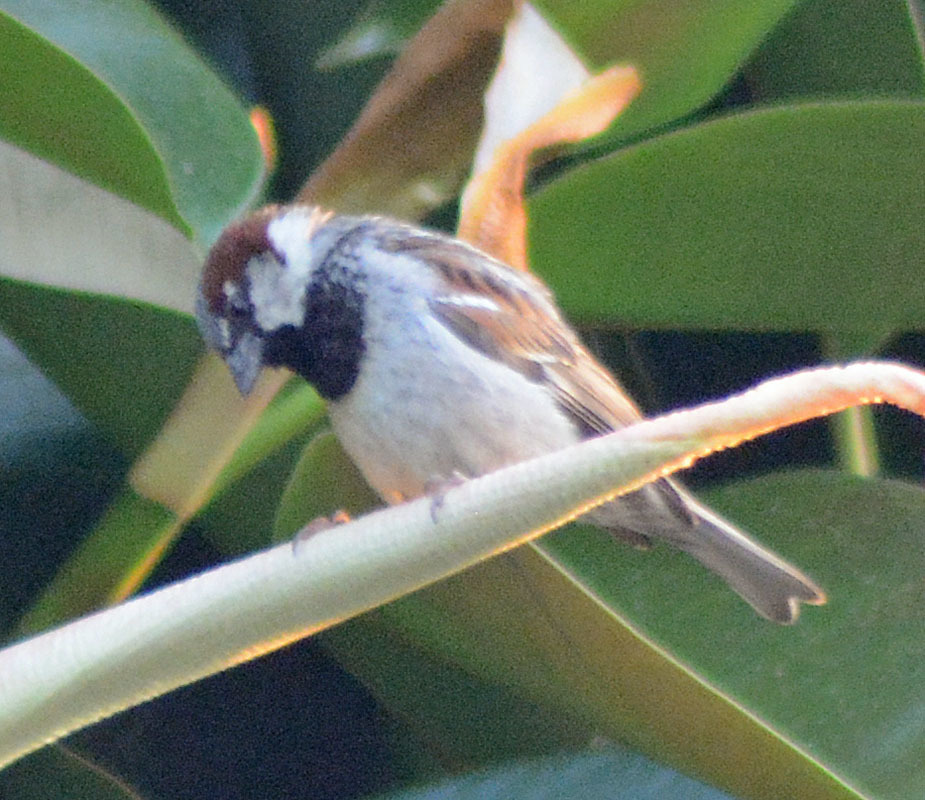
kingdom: Animalia
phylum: Chordata
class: Aves
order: Passeriformes
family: Passeridae
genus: Passer
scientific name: Passer domesticus
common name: House sparrow
